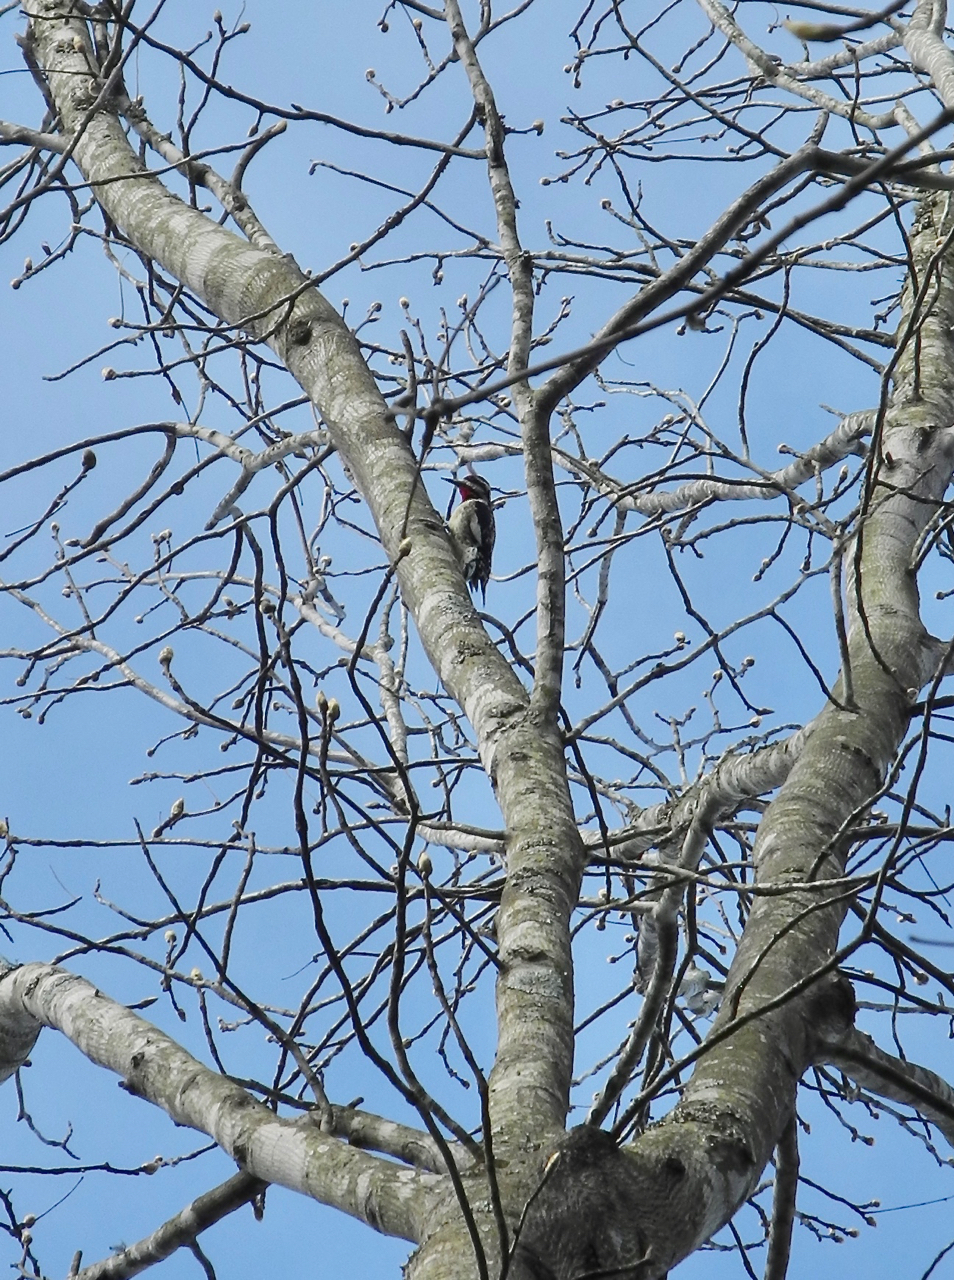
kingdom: Animalia
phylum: Chordata
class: Aves
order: Piciformes
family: Picidae
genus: Sphyrapicus
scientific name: Sphyrapicus varius
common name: Yellow-bellied sapsucker
